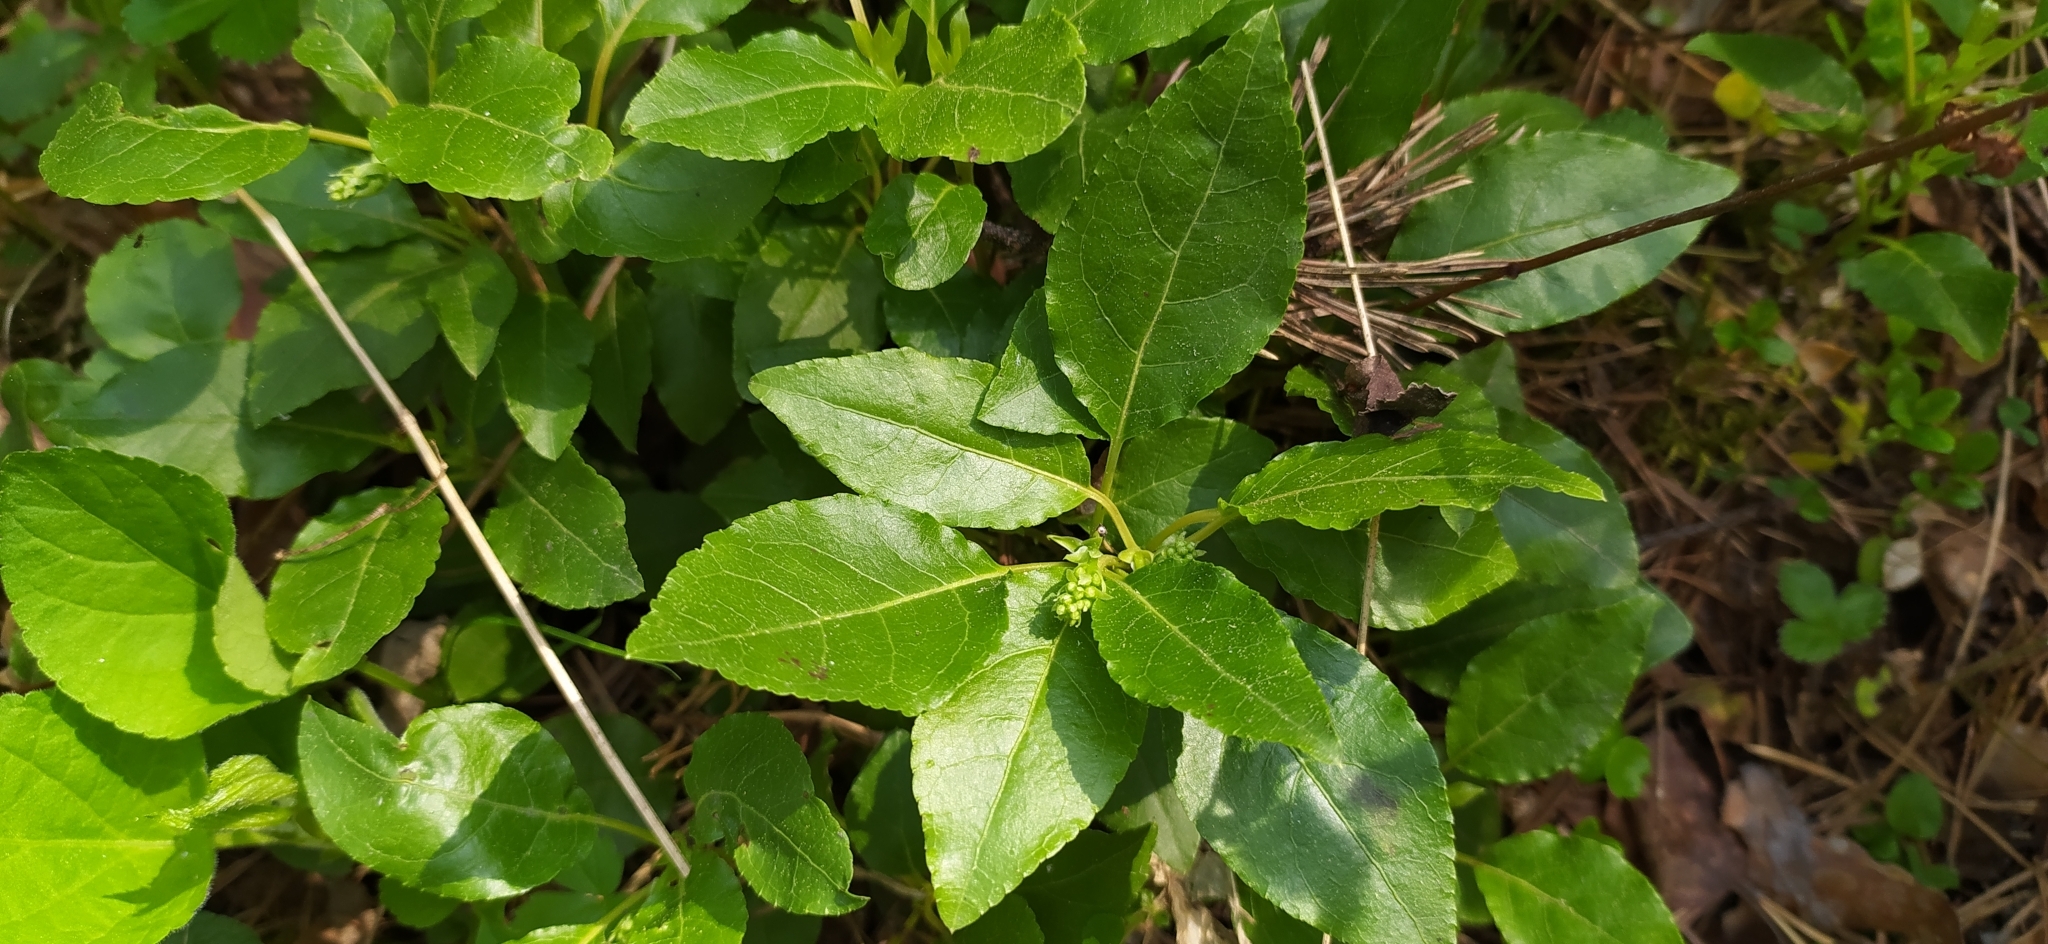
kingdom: Plantae
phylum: Tracheophyta
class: Magnoliopsida
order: Ericales
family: Ericaceae
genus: Orthilia
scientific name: Orthilia secunda
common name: One-sided orthilia
